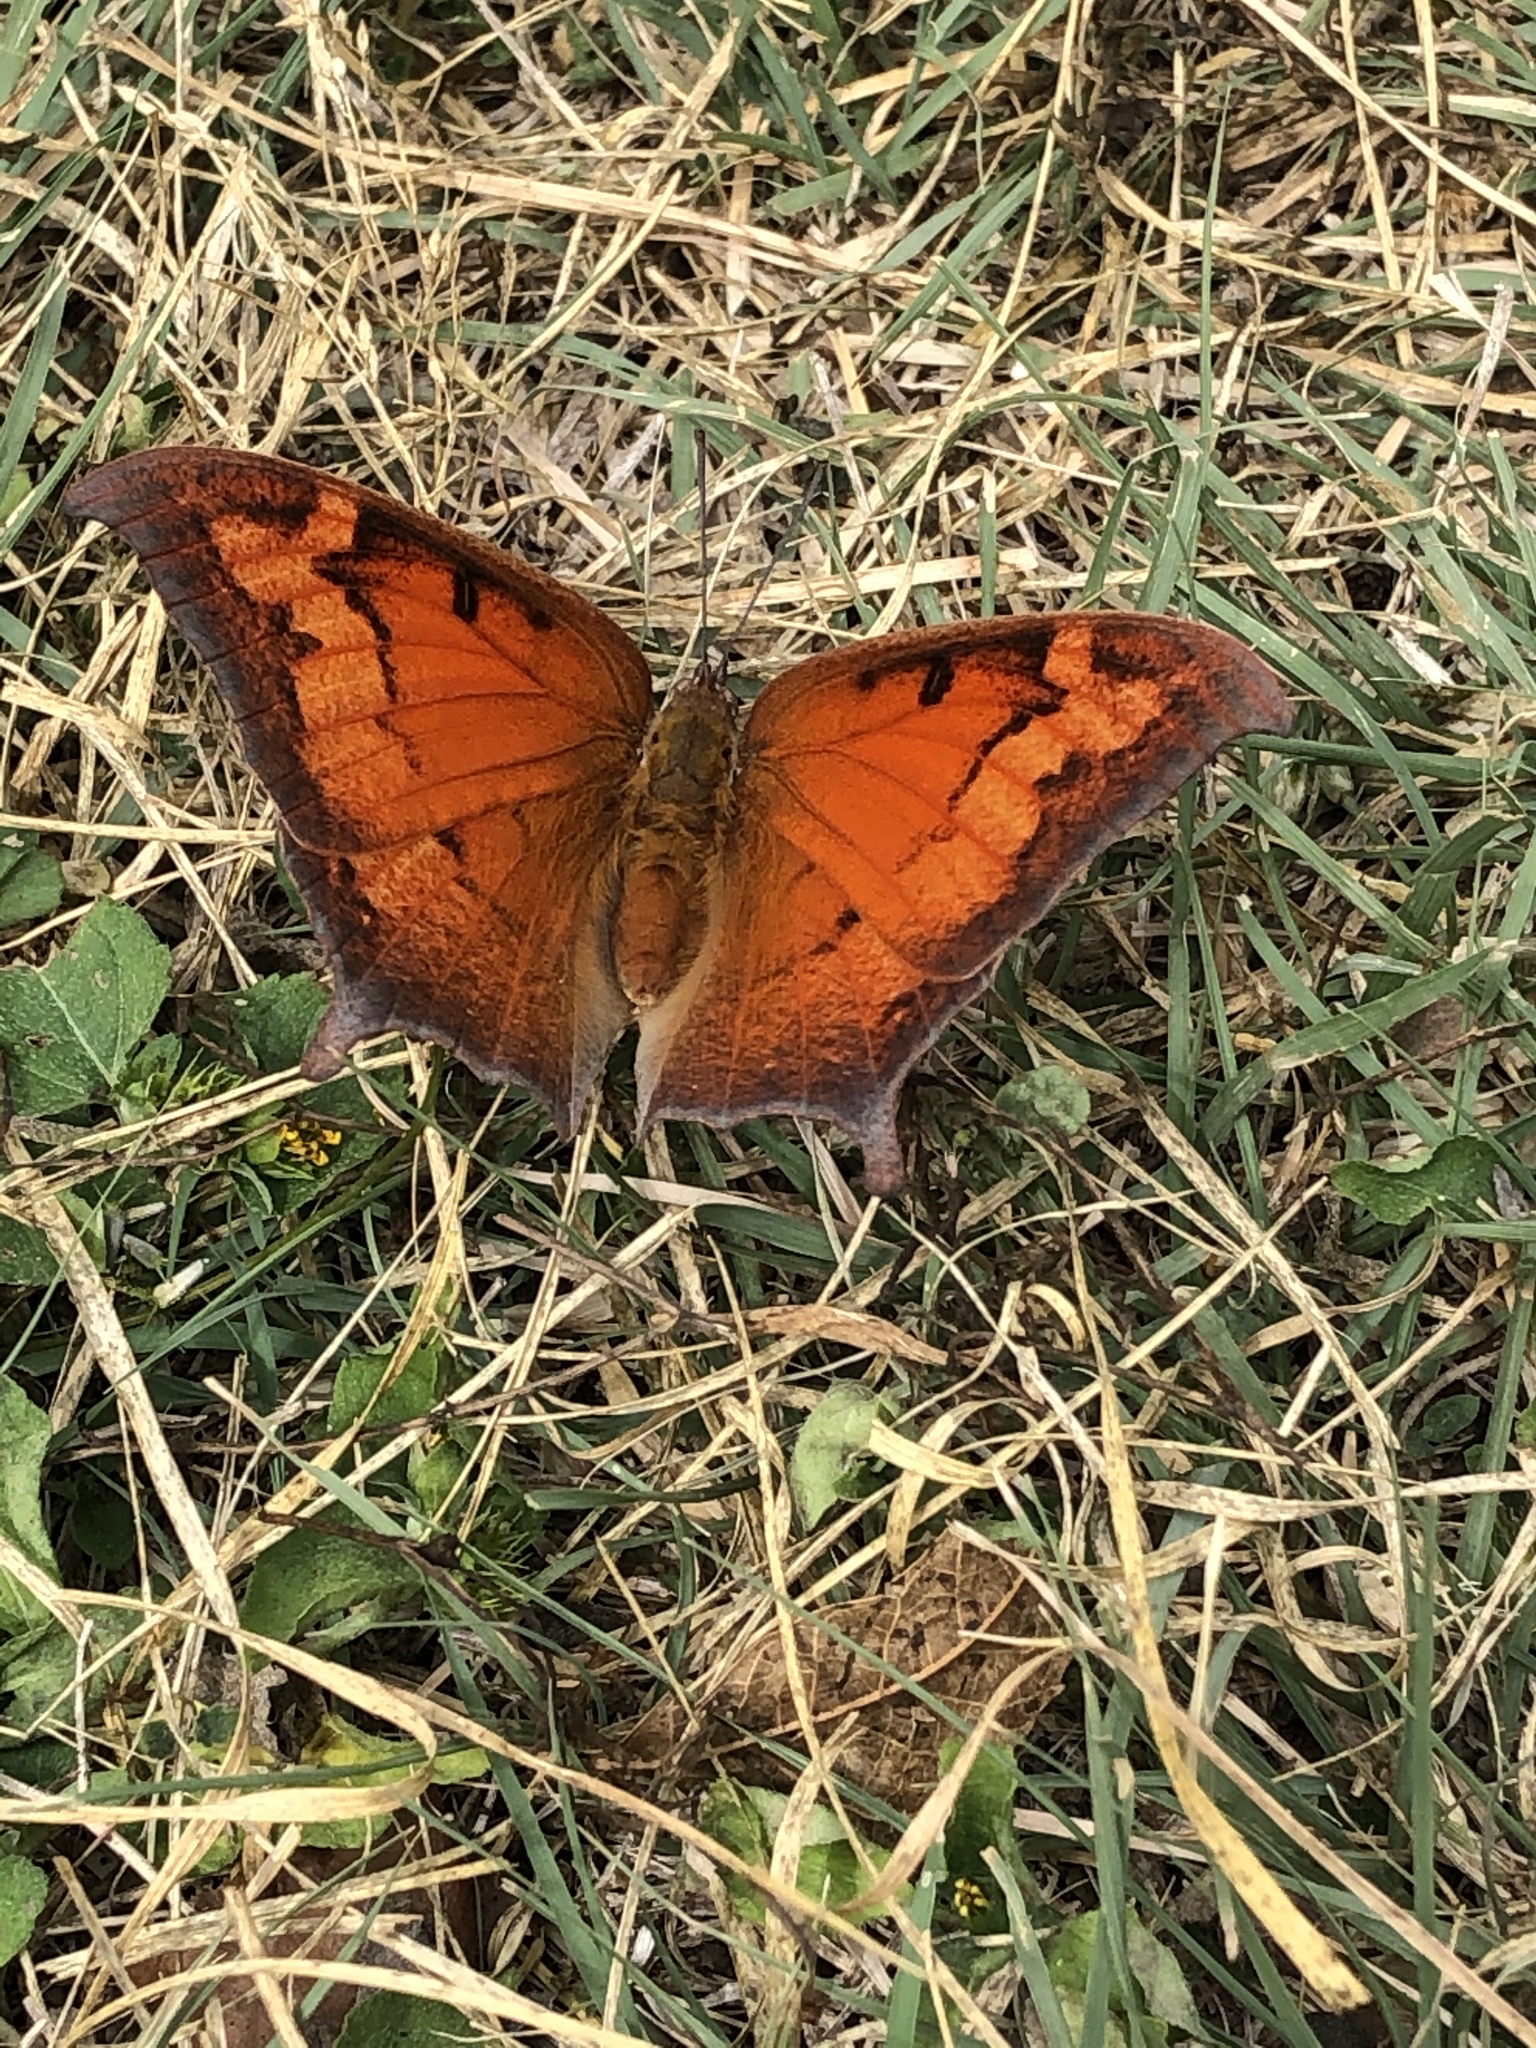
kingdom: Animalia
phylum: Arthropoda
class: Insecta
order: Lepidoptera
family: Nymphalidae
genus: Anaea
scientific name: Anaea andria
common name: Goatweed leafwing
